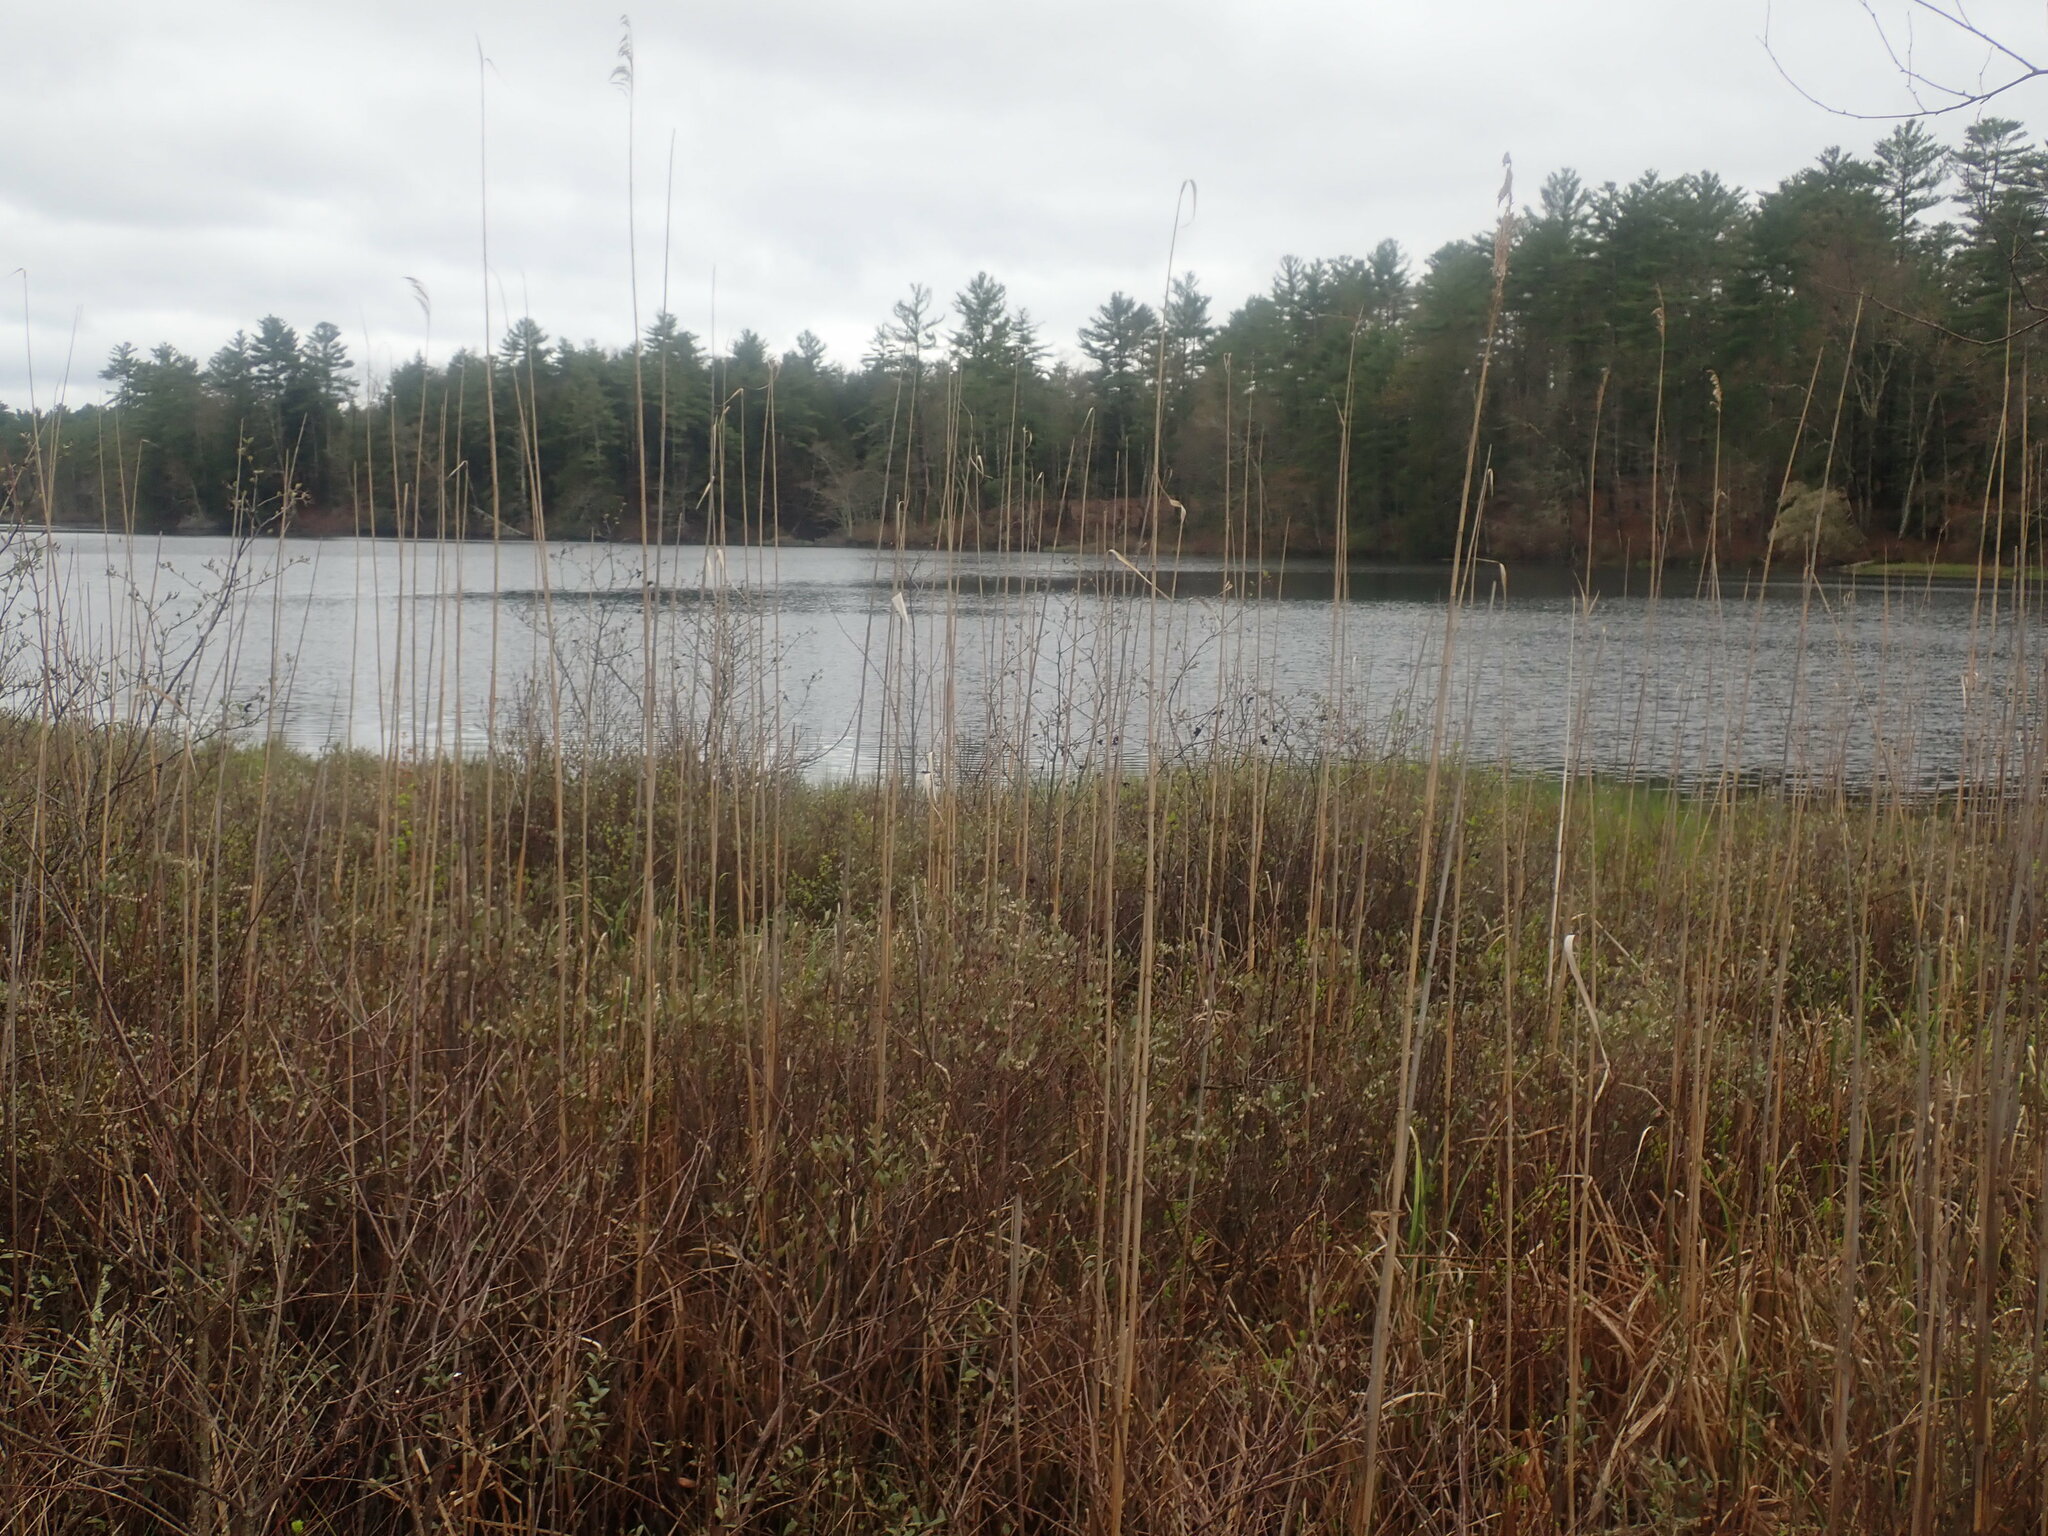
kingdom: Plantae
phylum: Tracheophyta
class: Liliopsida
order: Poales
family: Poaceae
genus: Phragmites
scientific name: Phragmites australis
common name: Common reed
